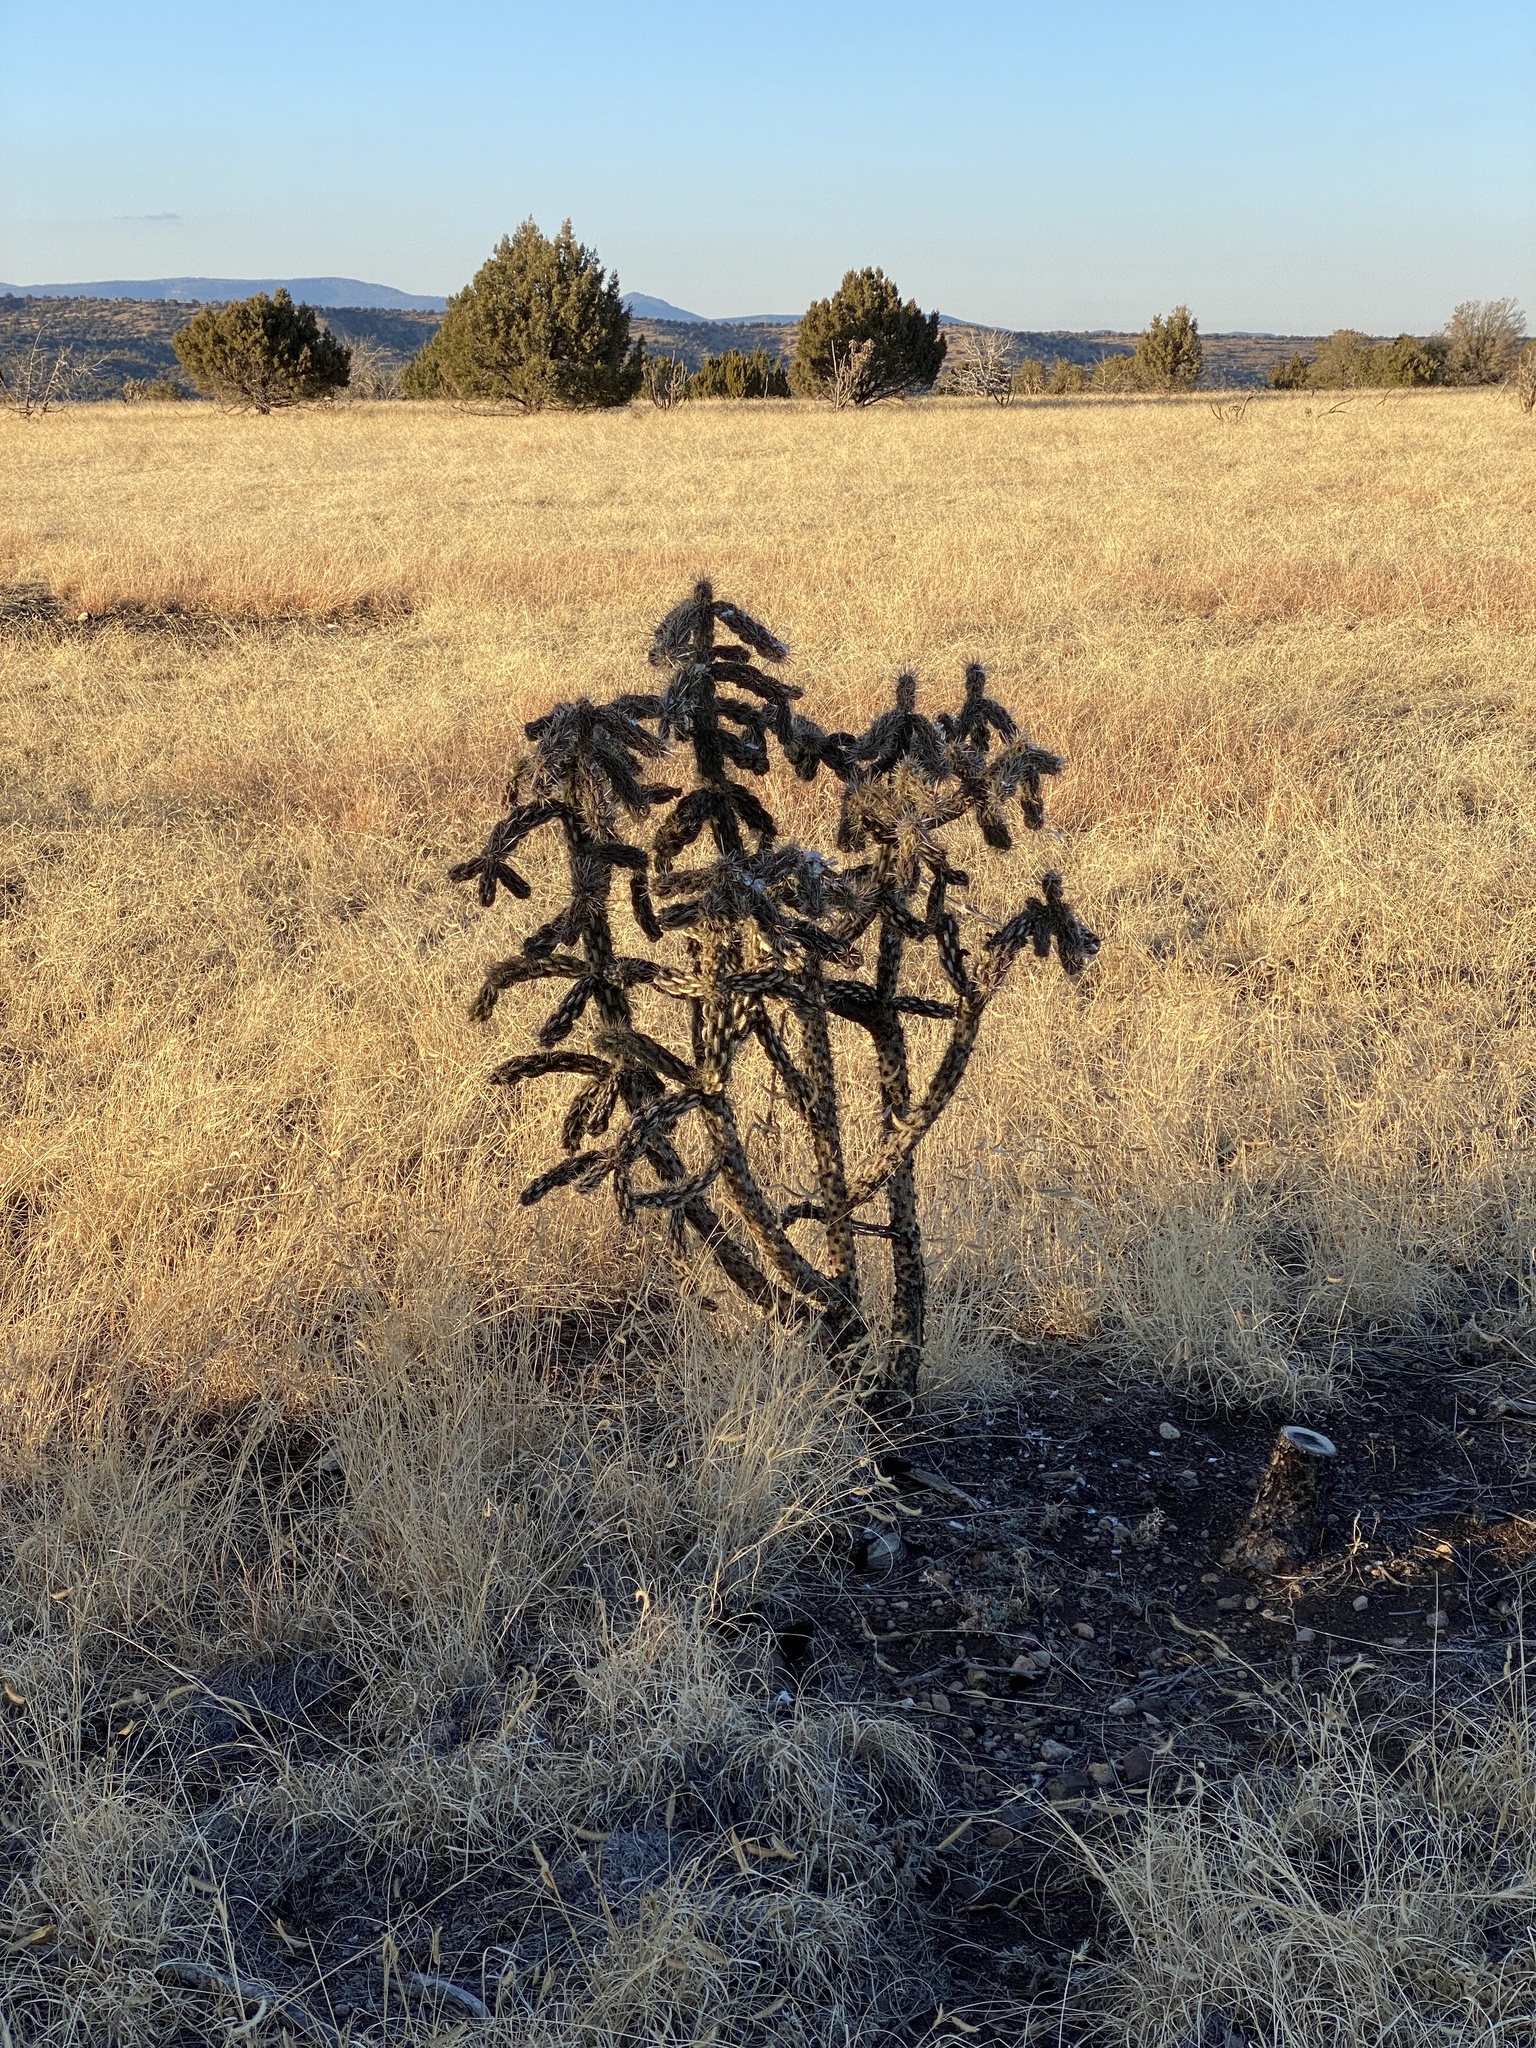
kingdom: Plantae
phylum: Tracheophyta
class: Magnoliopsida
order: Caryophyllales
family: Cactaceae
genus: Cylindropuntia
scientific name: Cylindropuntia imbricata
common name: Candelabrum cactus
